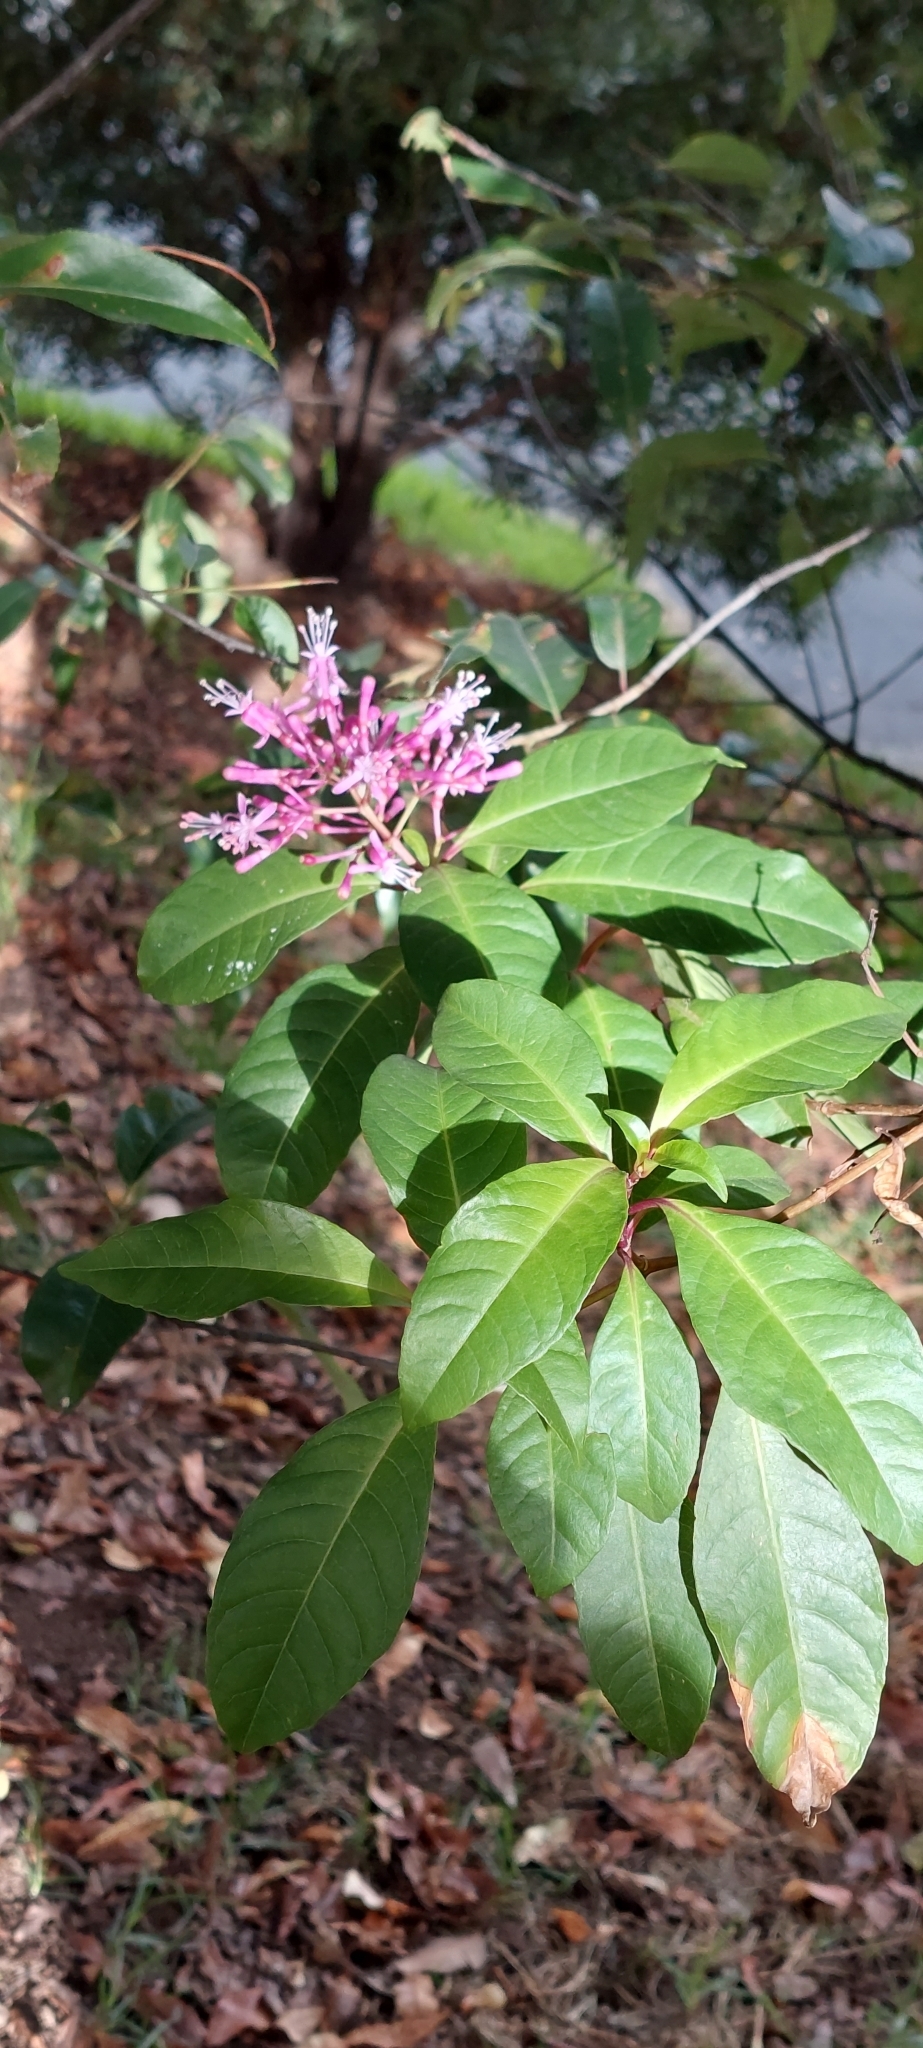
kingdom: Plantae
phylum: Tracheophyta
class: Magnoliopsida
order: Myrtales
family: Onagraceae
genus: Fuchsia
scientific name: Fuchsia paniculata
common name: Shrubby fuchsia
